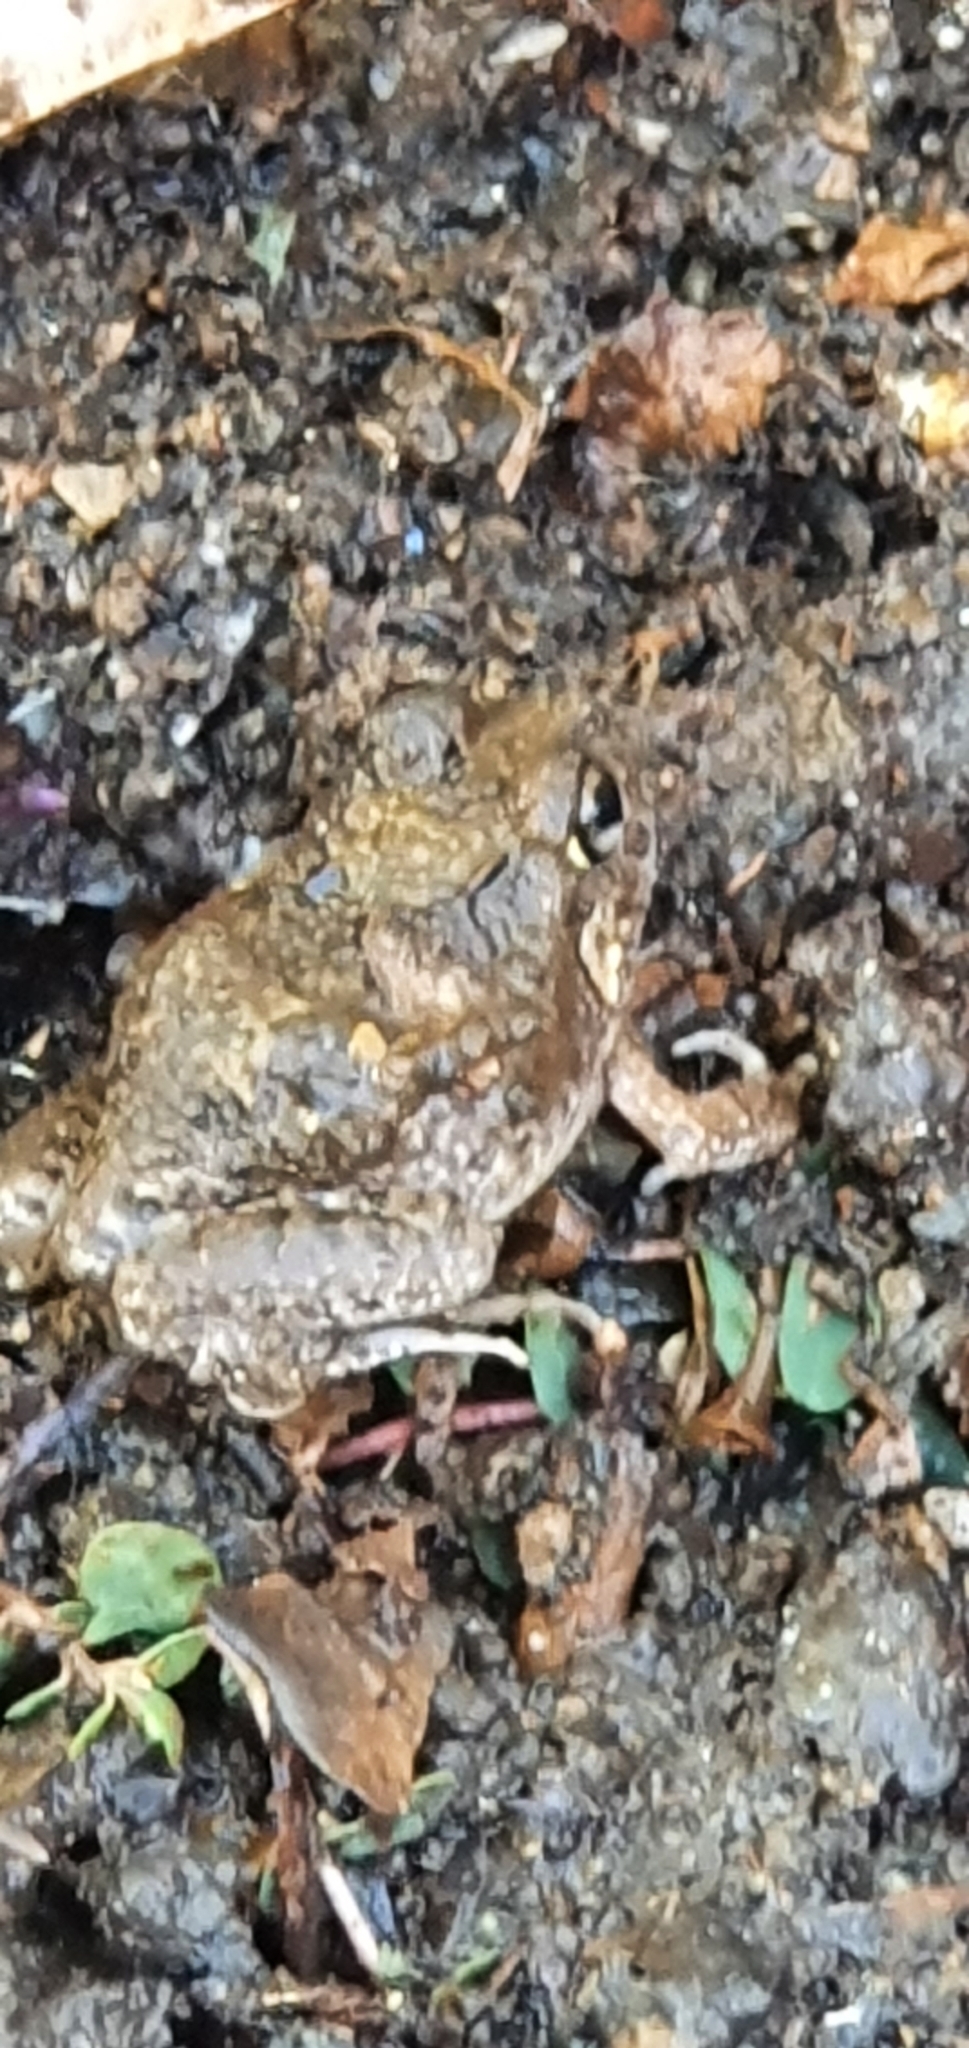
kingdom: Animalia
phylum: Chordata
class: Amphibia
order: Anura
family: Limnodynastidae
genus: Platyplectrum
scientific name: Platyplectrum ornatum
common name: Ornate burrowing frog
